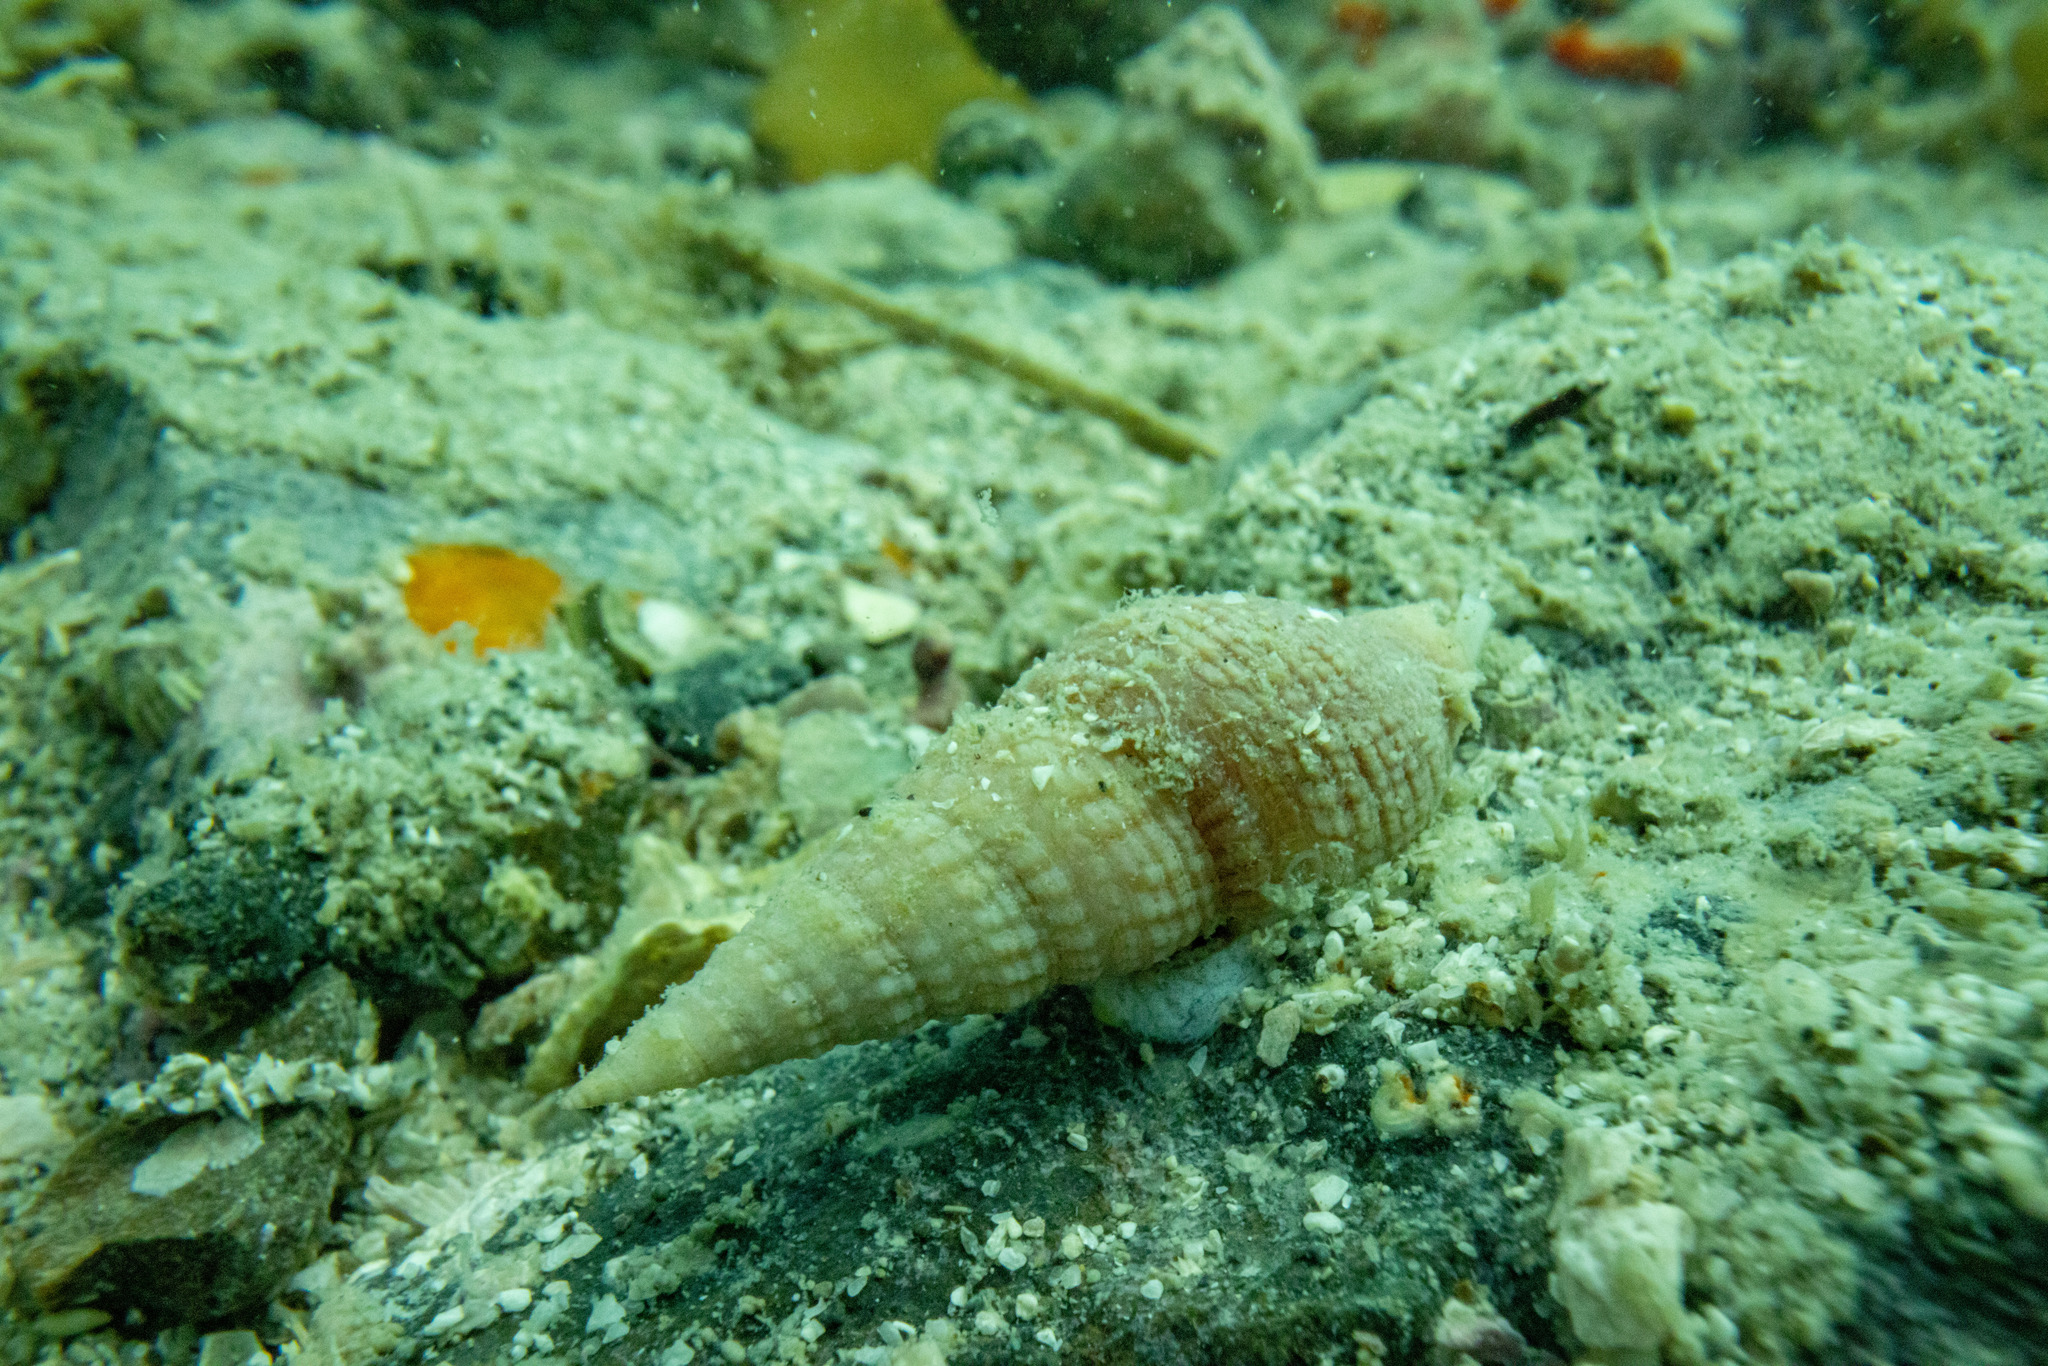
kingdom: Animalia
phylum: Mollusca
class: Gastropoda
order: Neogastropoda
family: Borsoniidae
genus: Phenatoma
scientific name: Phenatoma roseum
